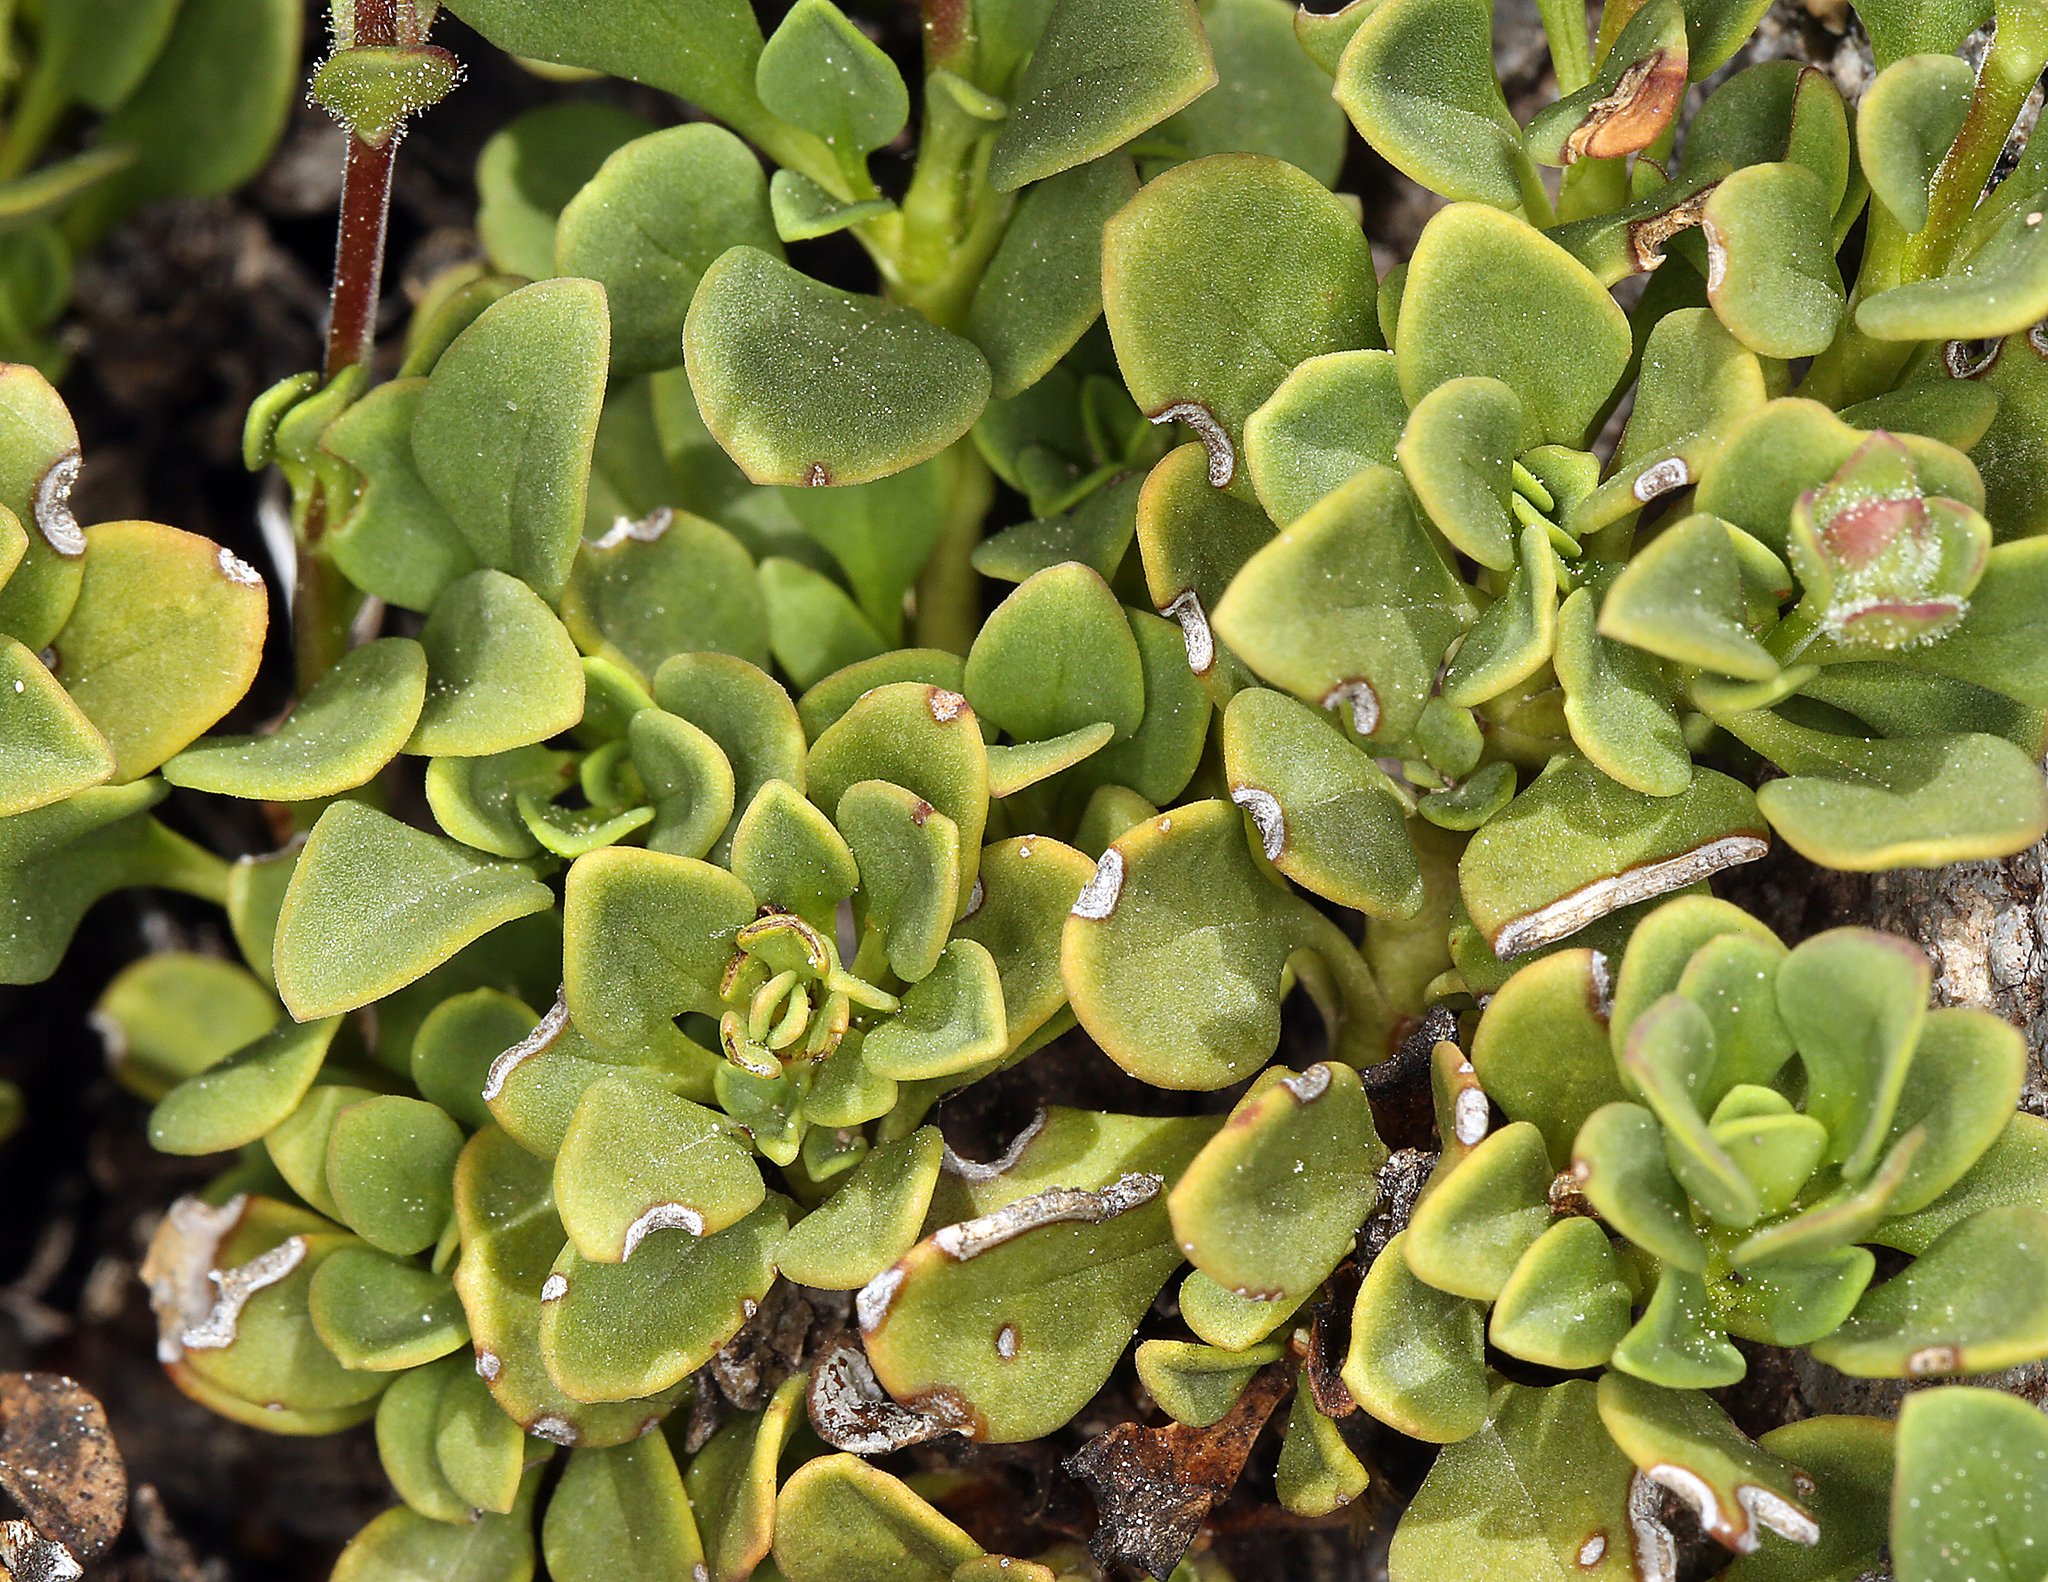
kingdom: Plantae
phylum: Tracheophyta
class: Magnoliopsida
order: Lamiales
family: Plantaginaceae
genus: Penstemon
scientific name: Penstemon davidsonii
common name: Davidson's penstemon
